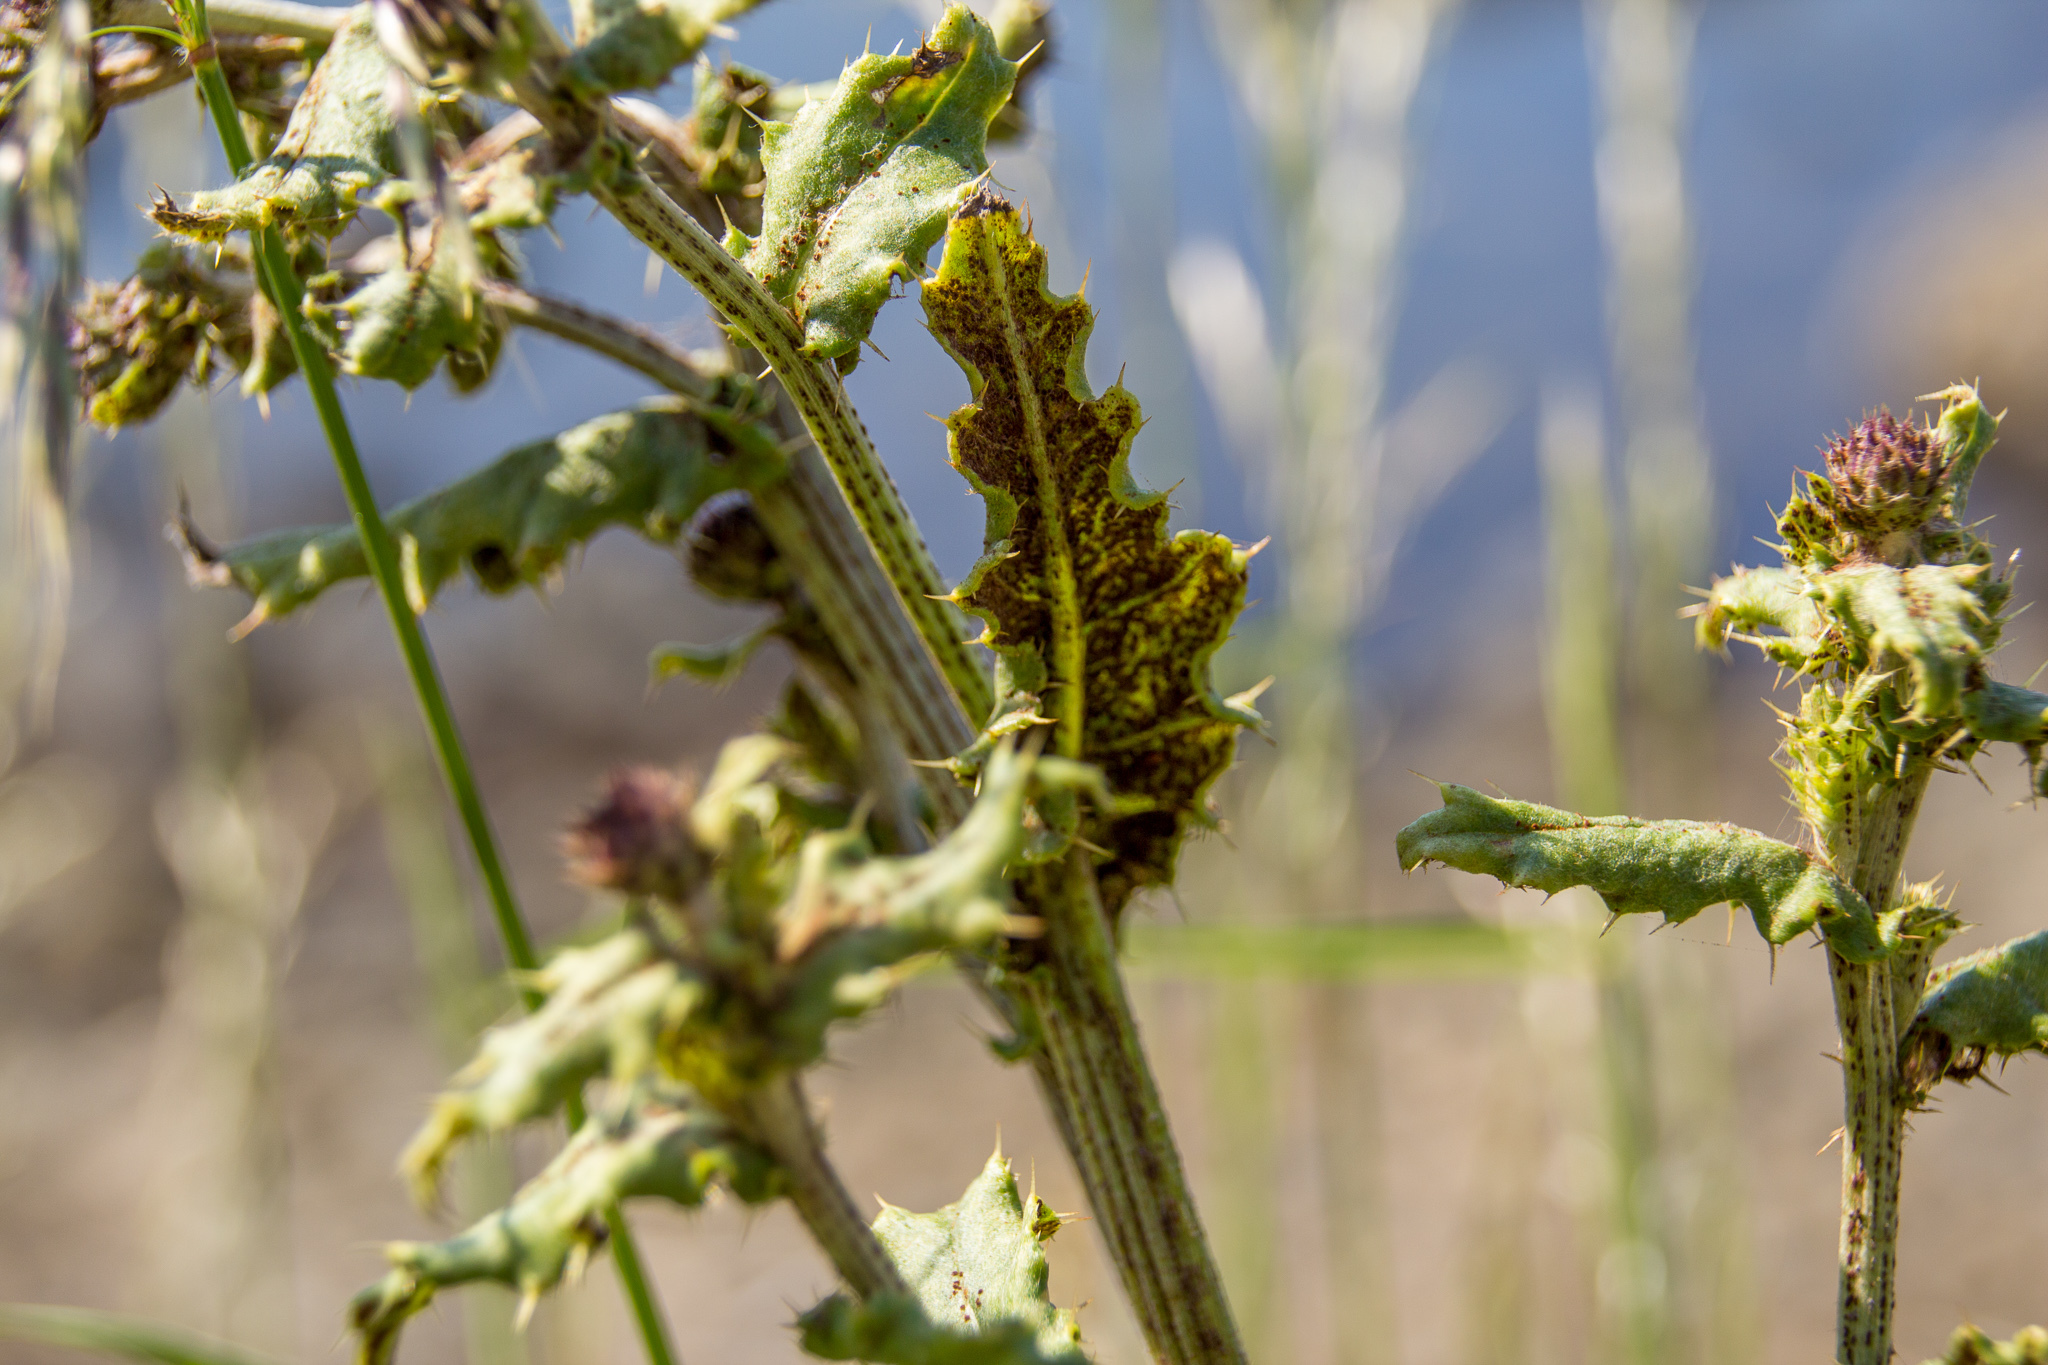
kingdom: Fungi
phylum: Basidiomycota
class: Pucciniomycetes
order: Pucciniales
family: Pucciniaceae
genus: Puccinia
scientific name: Puccinia suaveolens
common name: Thistle rust
